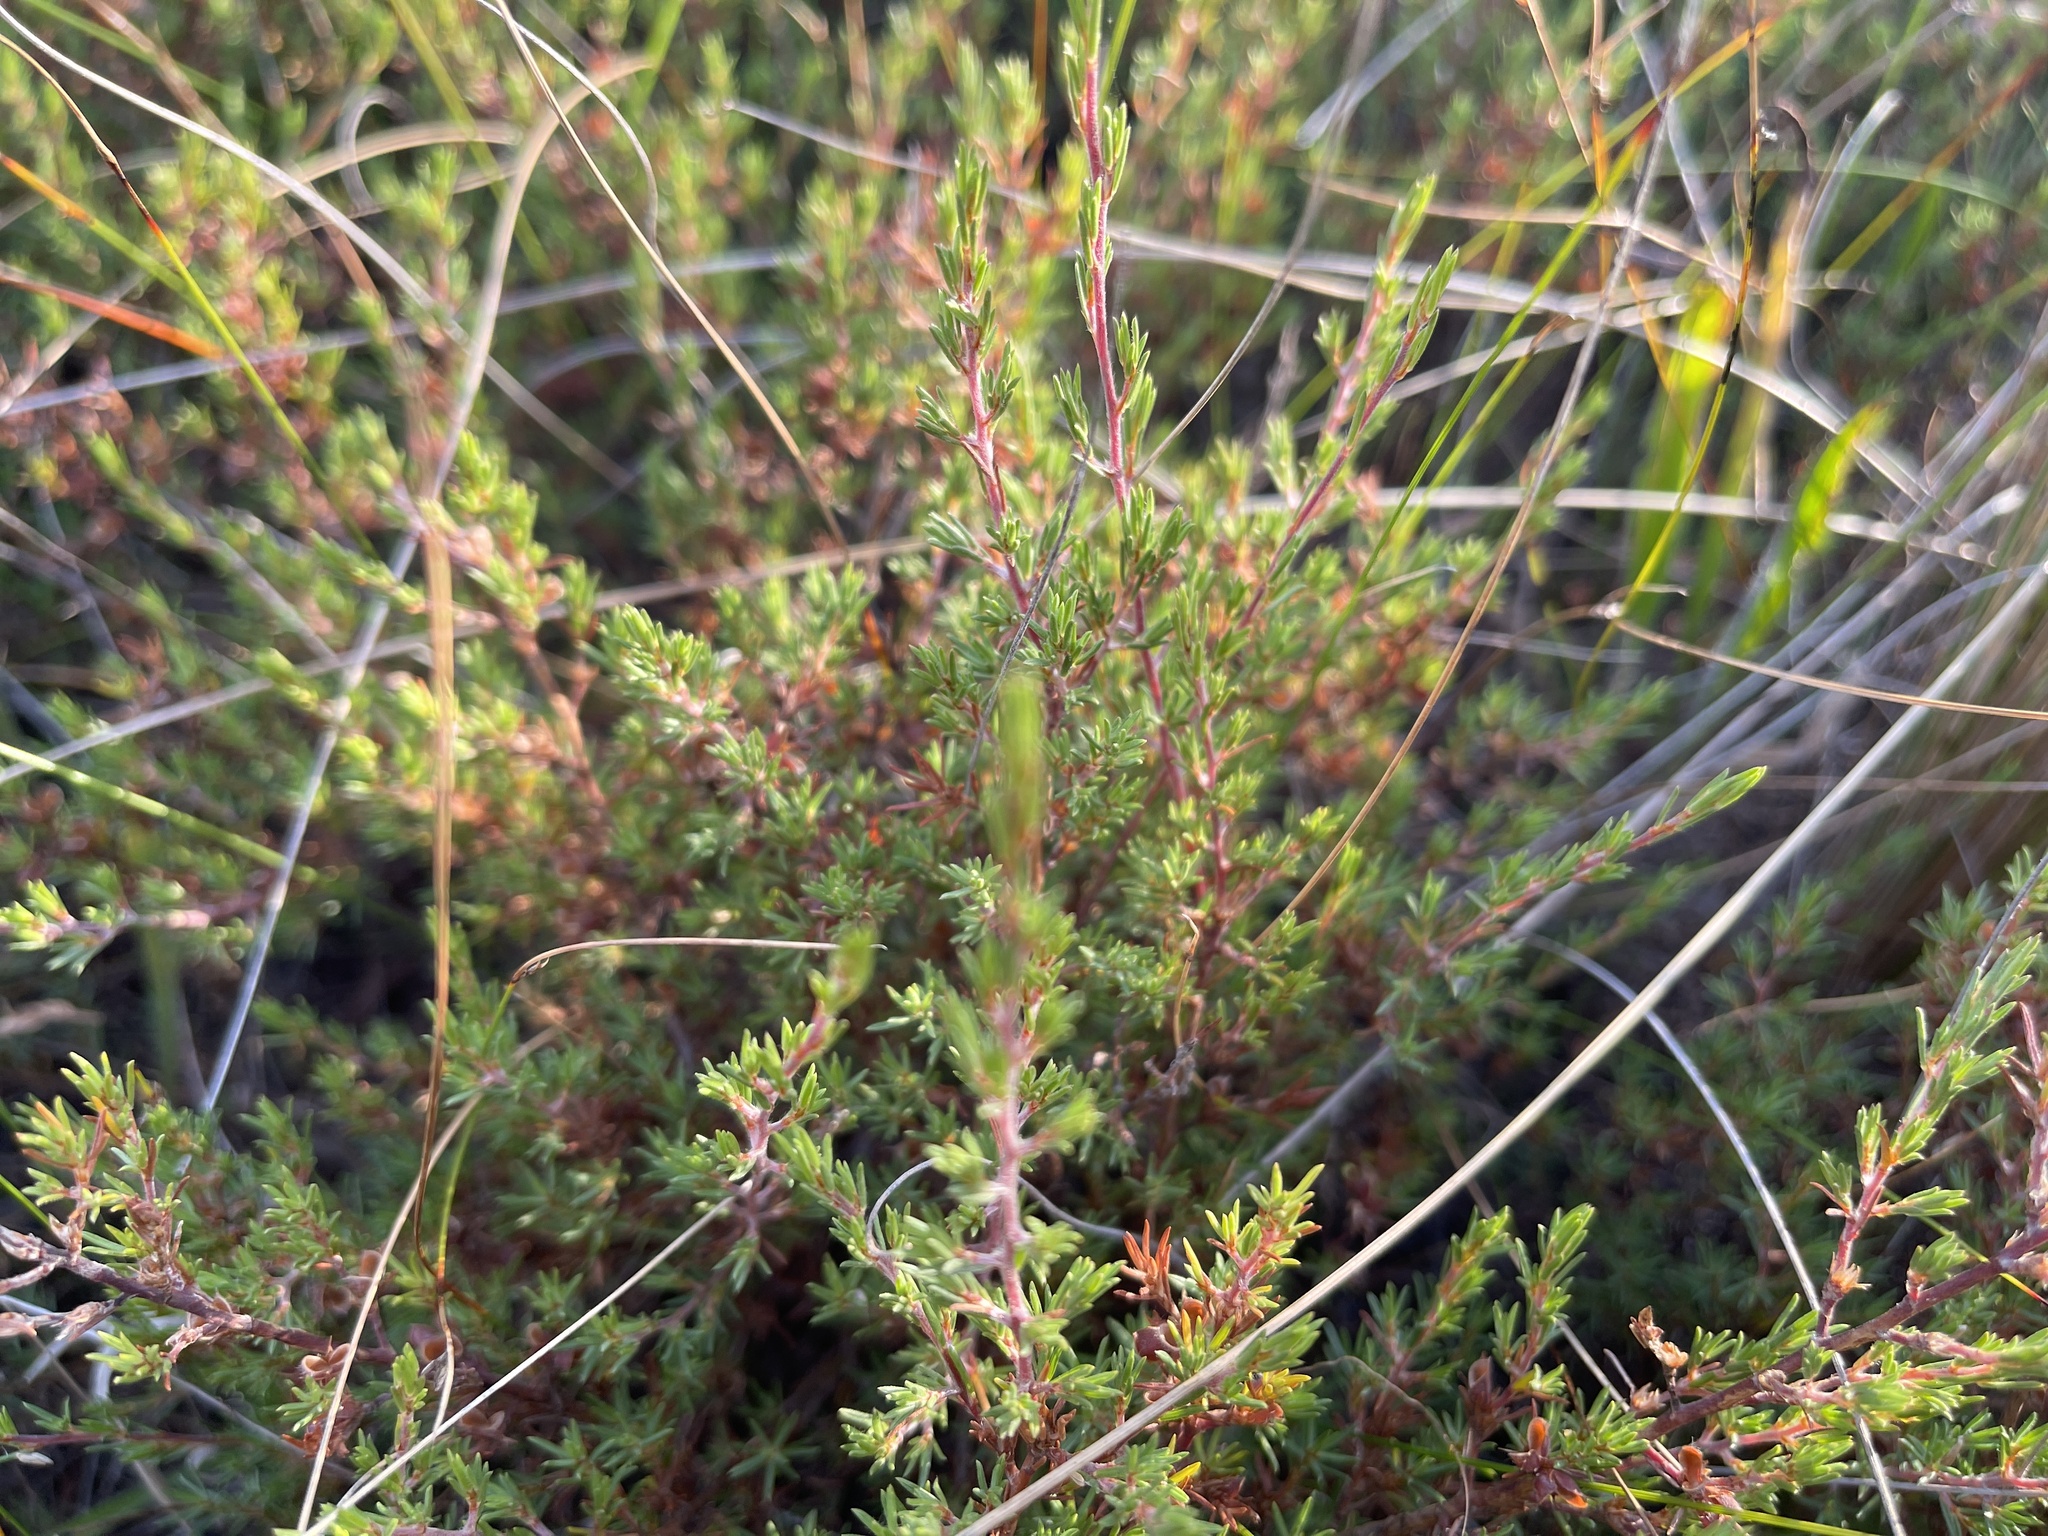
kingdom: Plantae
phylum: Tracheophyta
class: Magnoliopsida
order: Caryophyllales
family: Frankeniaceae
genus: Frankenia
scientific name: Frankenia pauciflora
